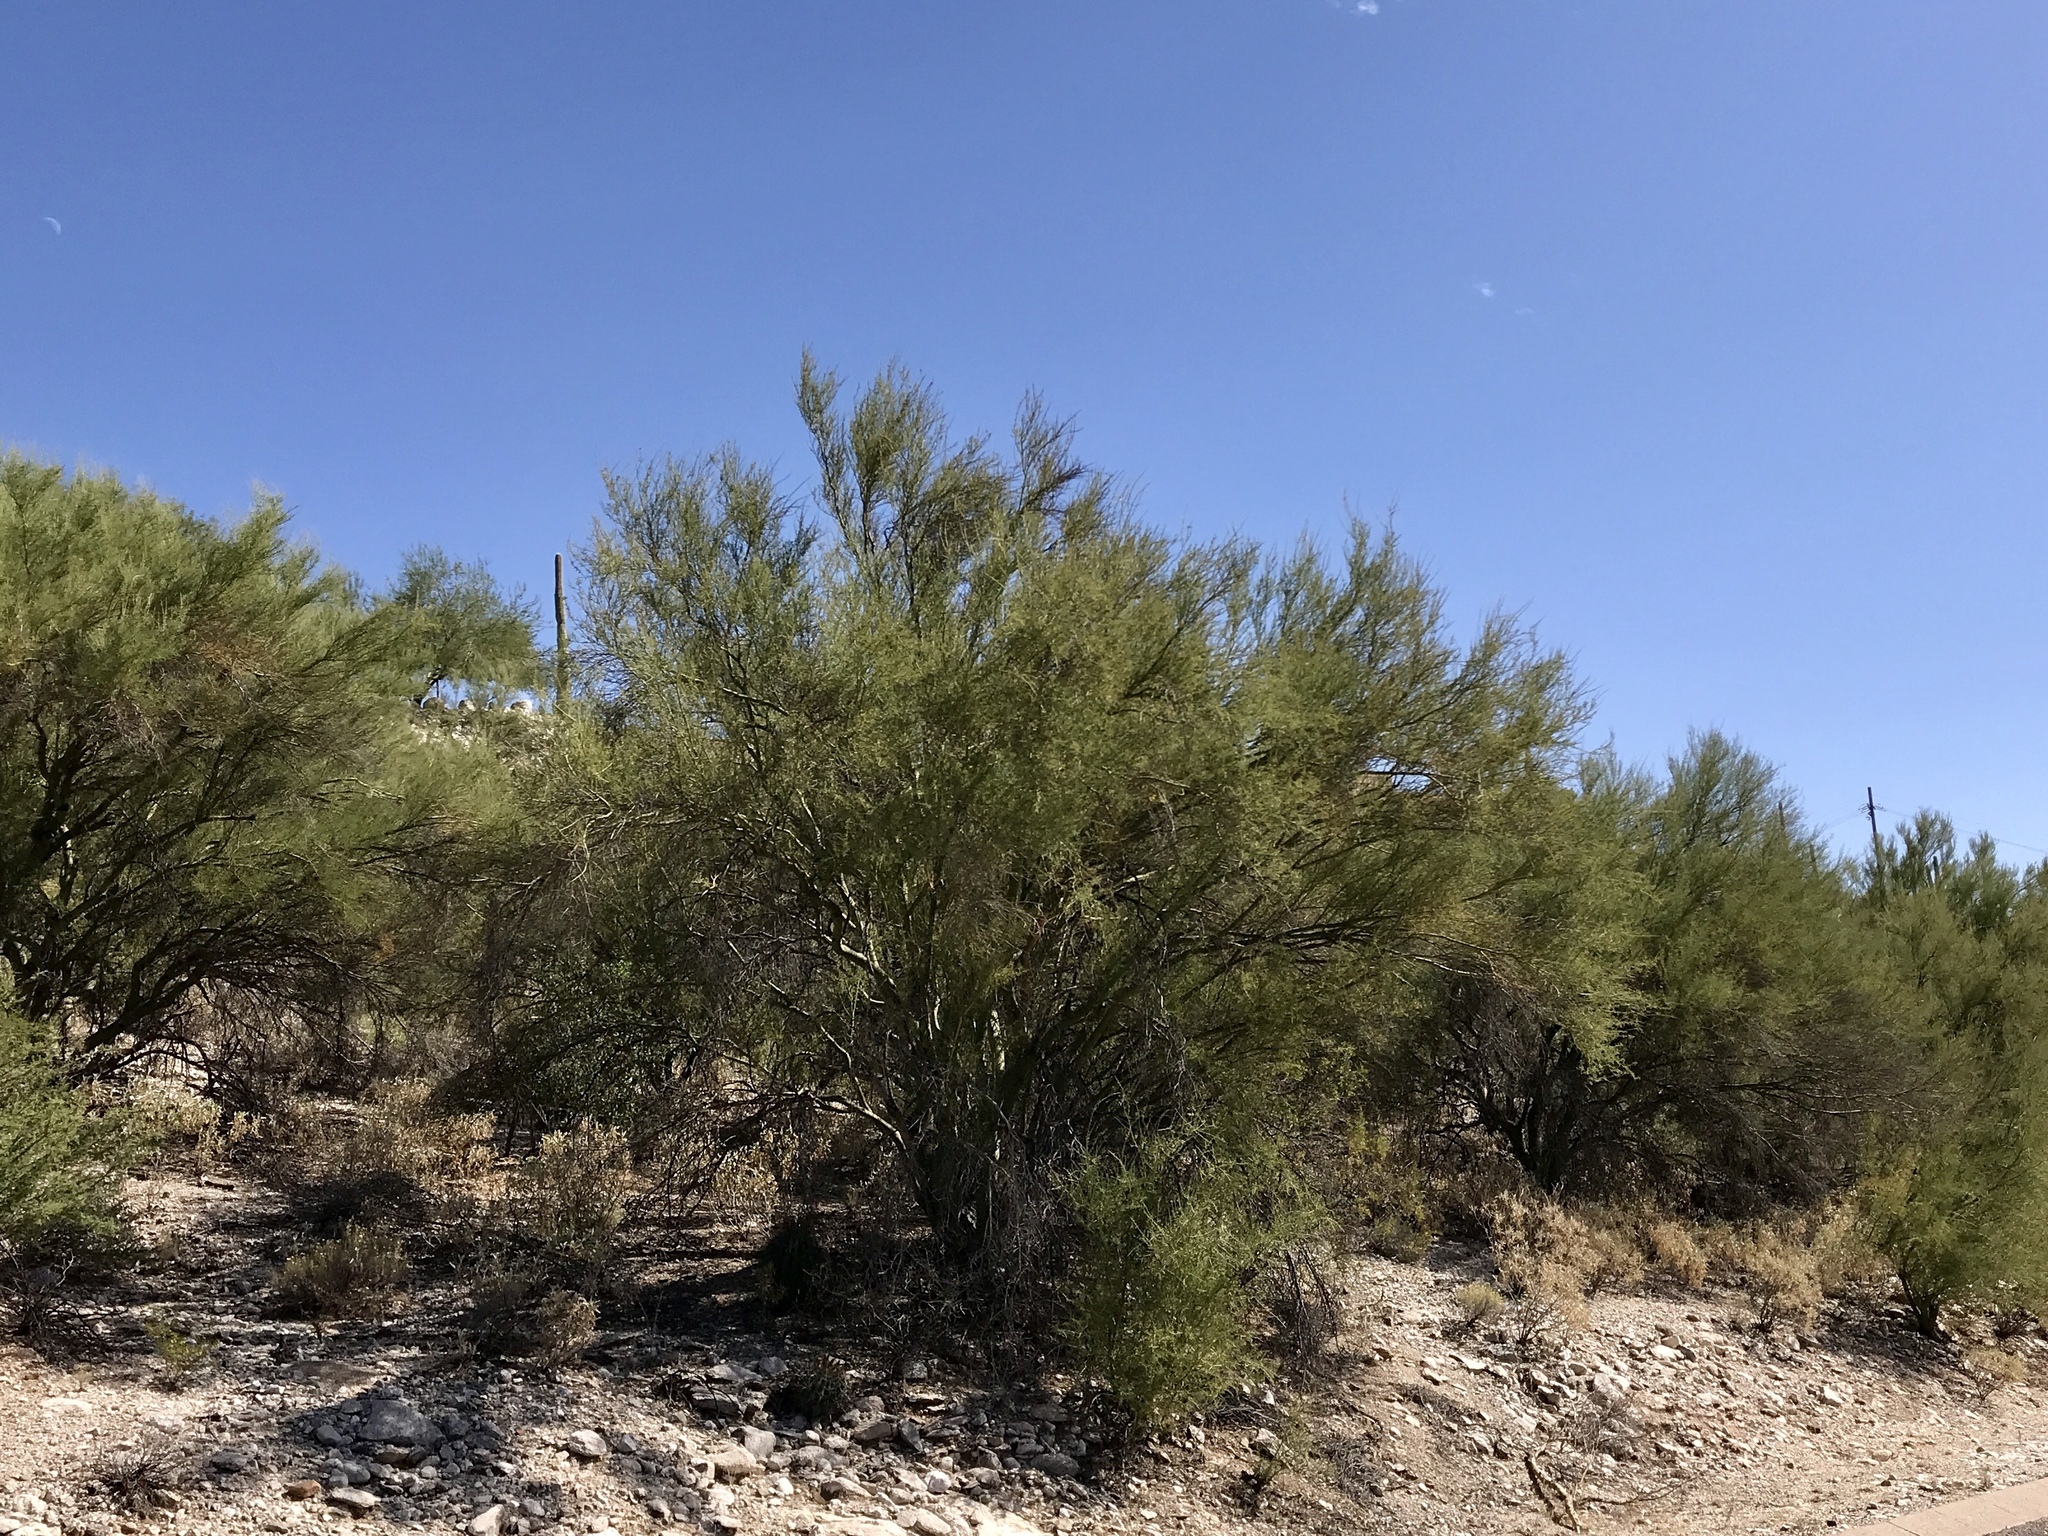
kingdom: Plantae
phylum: Tracheophyta
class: Magnoliopsida
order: Fabales
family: Fabaceae
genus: Parkinsonia
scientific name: Parkinsonia microphylla
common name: Yellow paloverde
